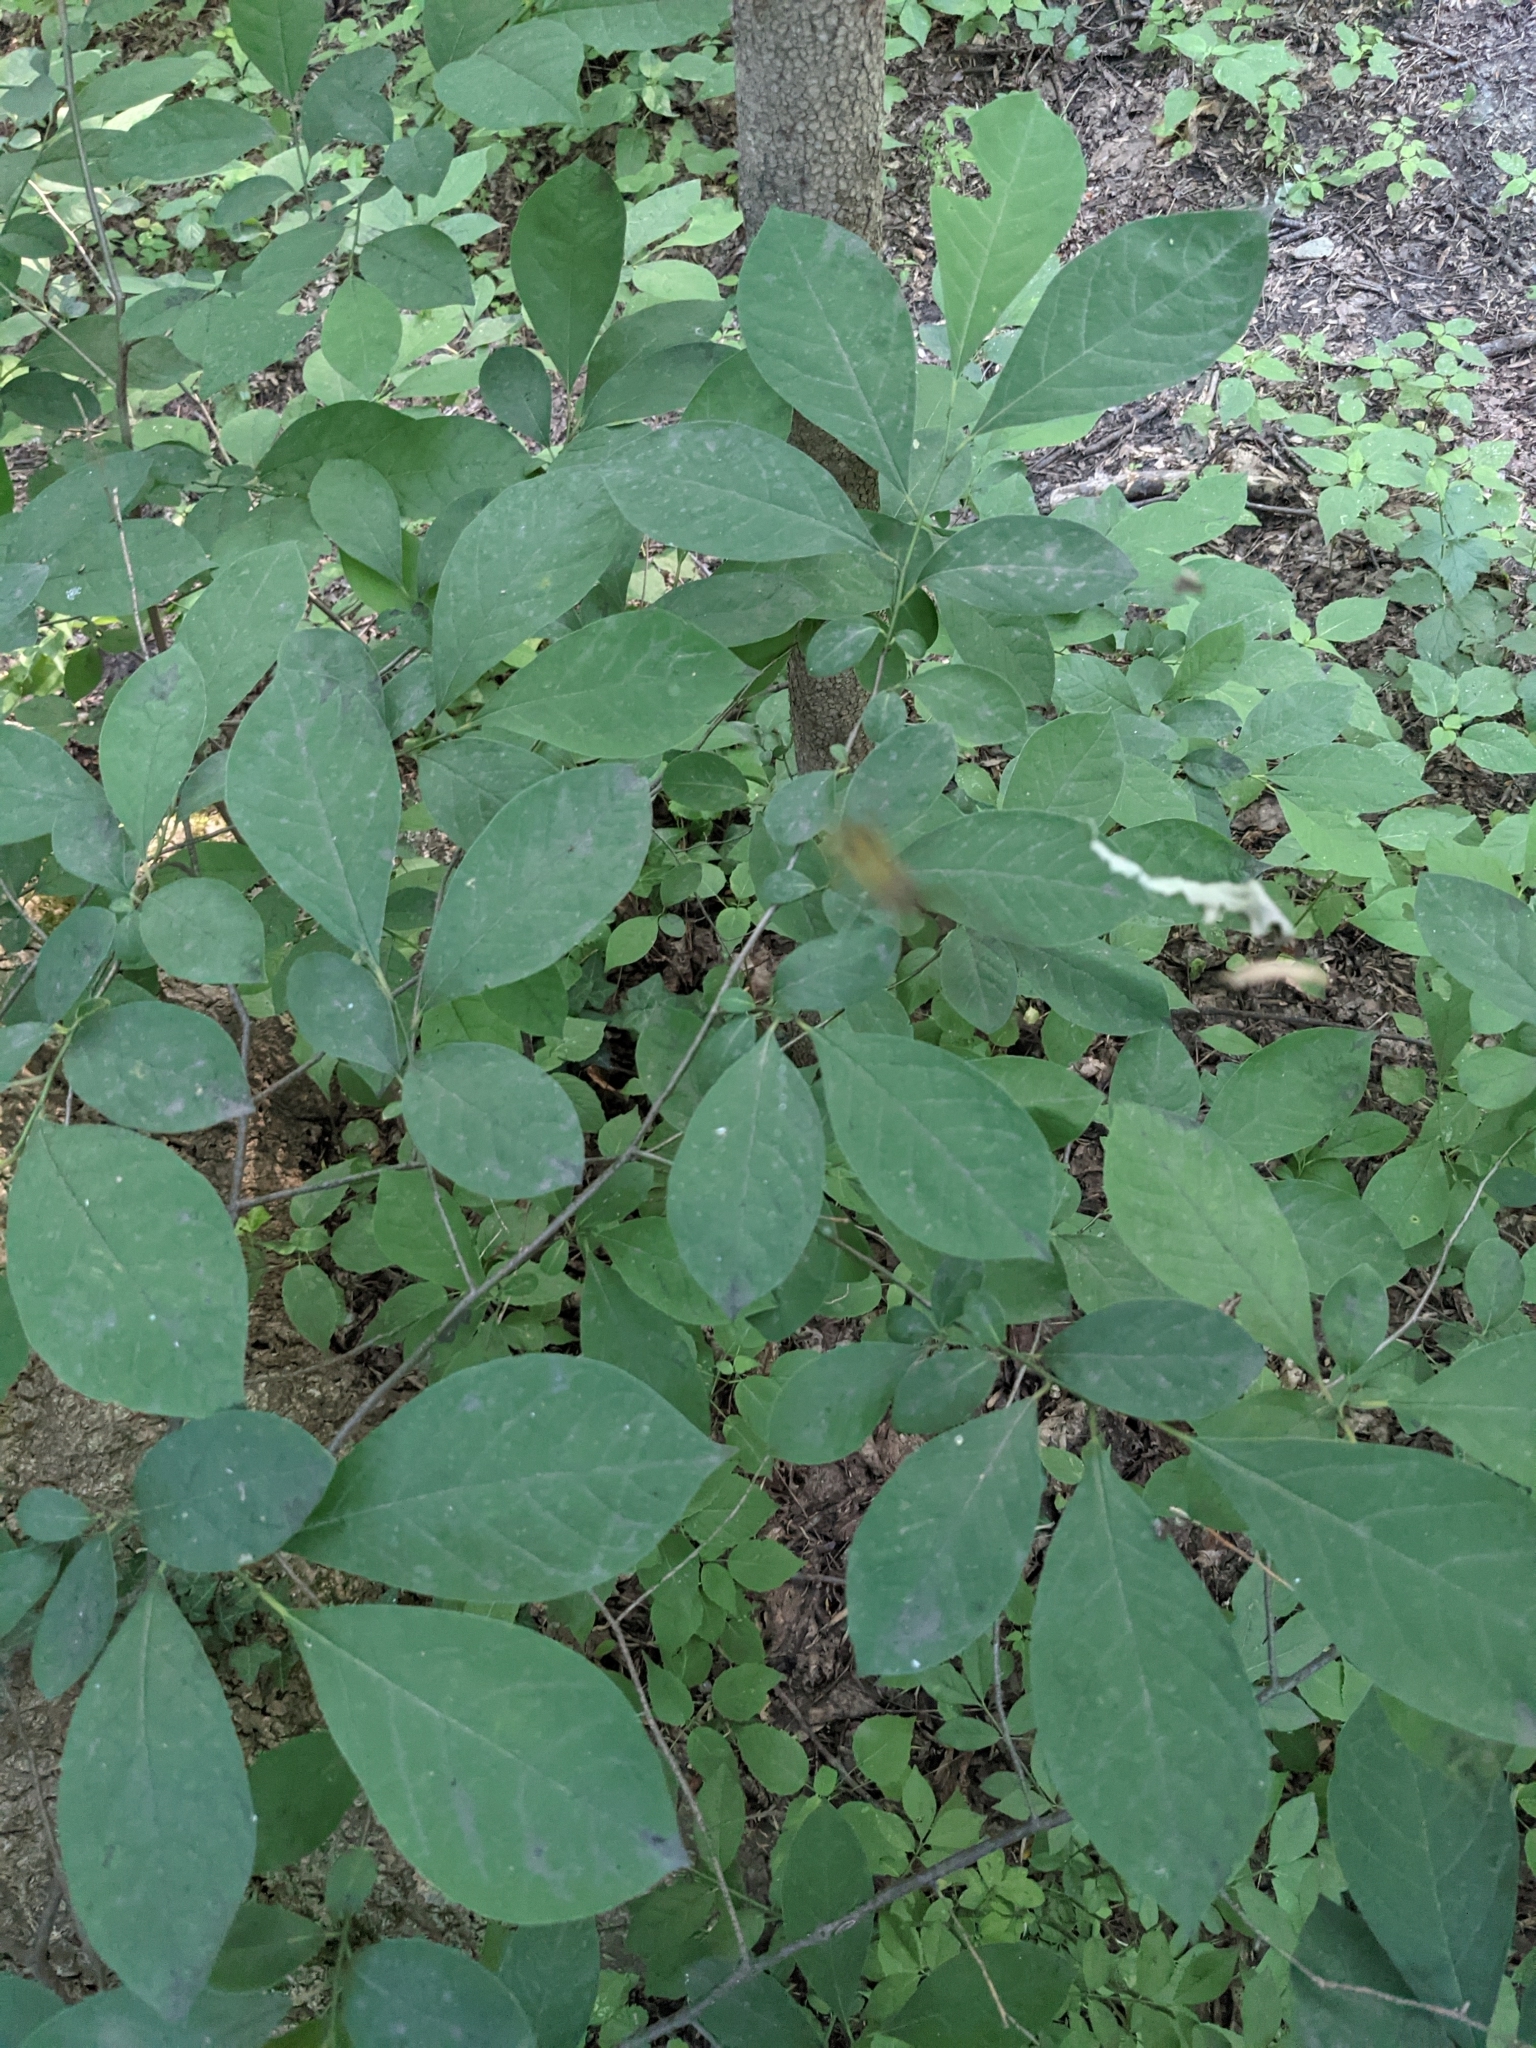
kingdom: Plantae
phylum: Tracheophyta
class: Magnoliopsida
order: Laurales
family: Lauraceae
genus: Lindera
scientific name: Lindera benzoin
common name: Spicebush
